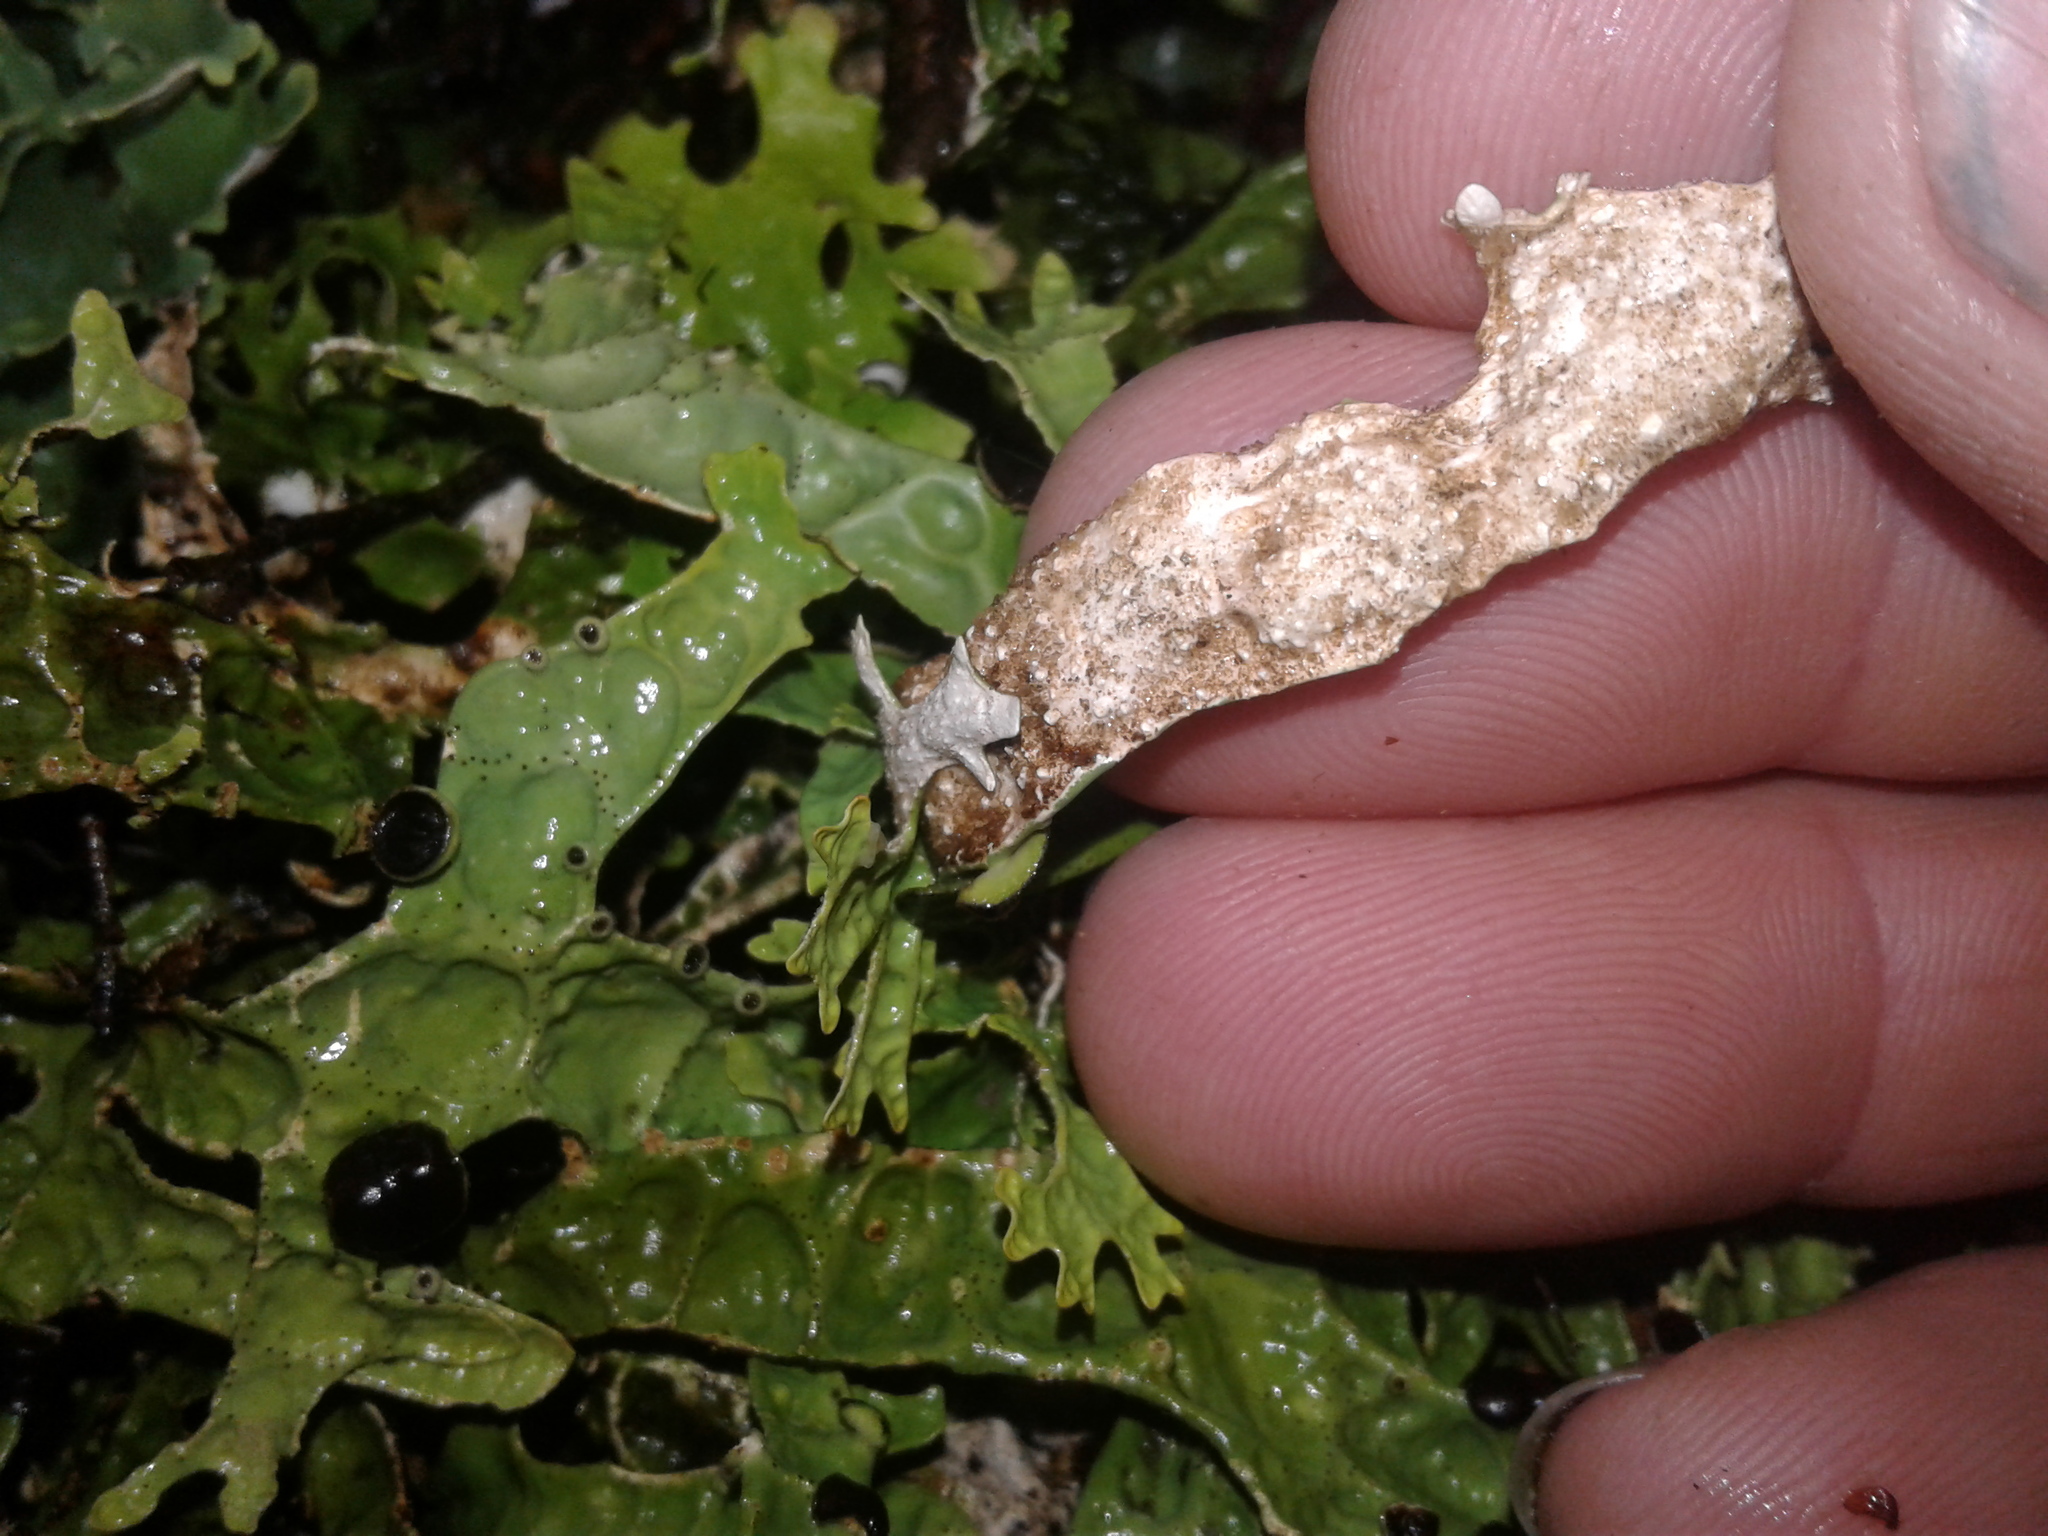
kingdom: Fungi
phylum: Ascomycota
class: Lecanoromycetes
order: Peltigerales
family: Lobariaceae
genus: Pseudocyphellaria
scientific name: Pseudocyphellaria rufovirescens
